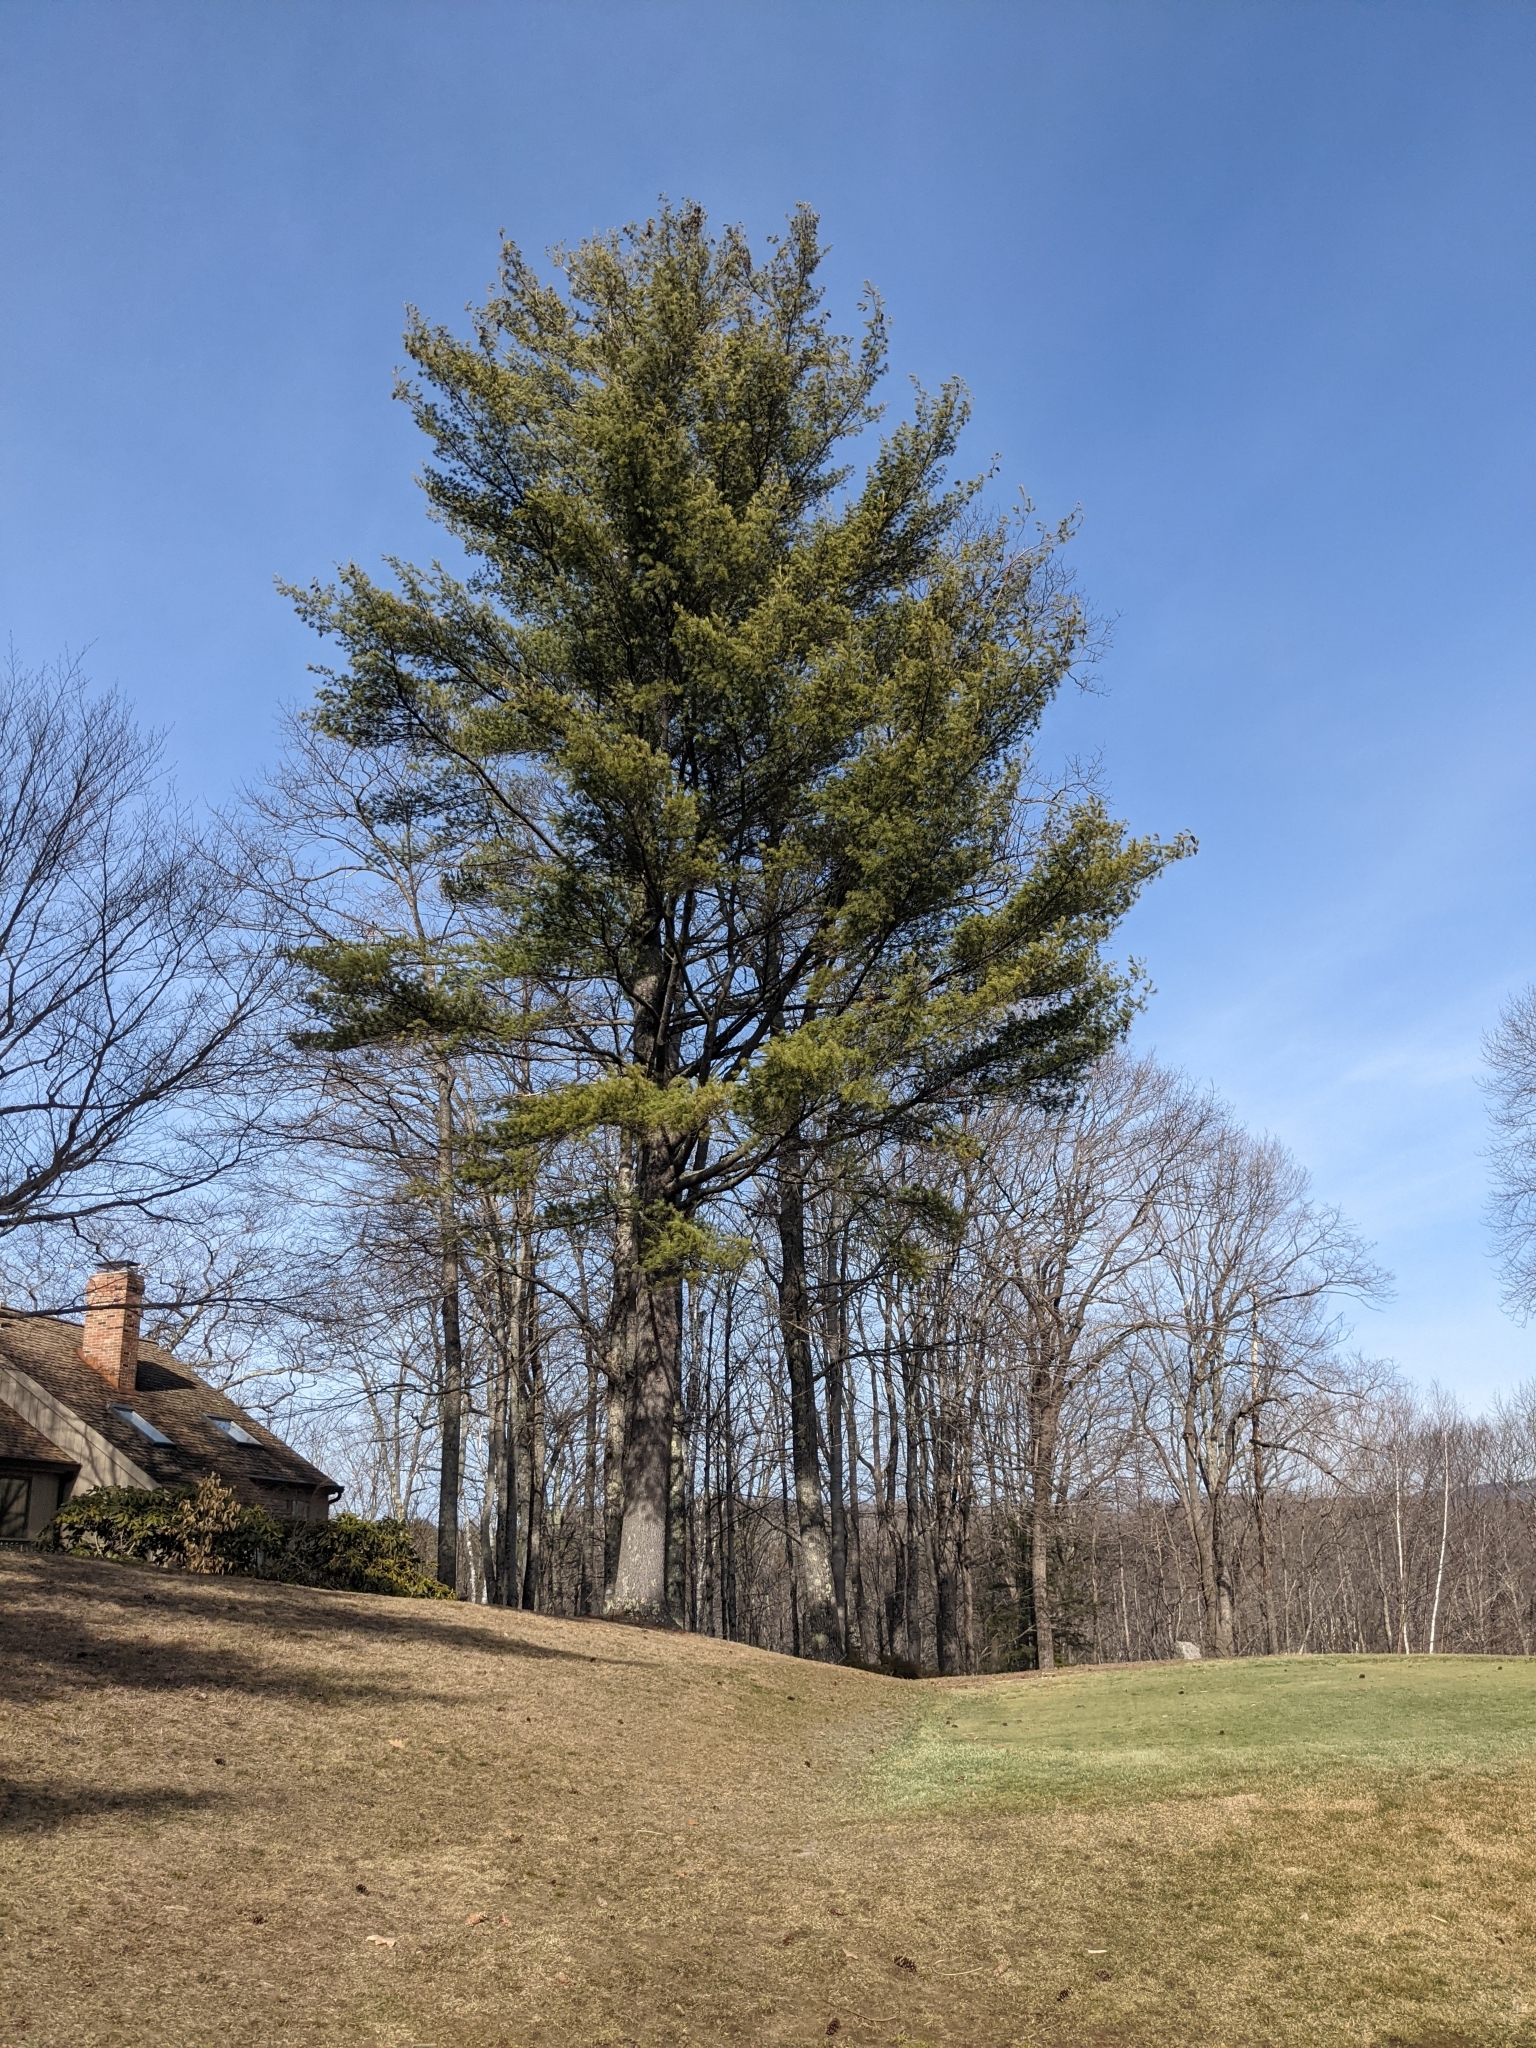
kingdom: Plantae
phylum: Tracheophyta
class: Pinopsida
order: Pinales
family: Pinaceae
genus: Pinus
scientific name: Pinus strobus
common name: Weymouth pine
